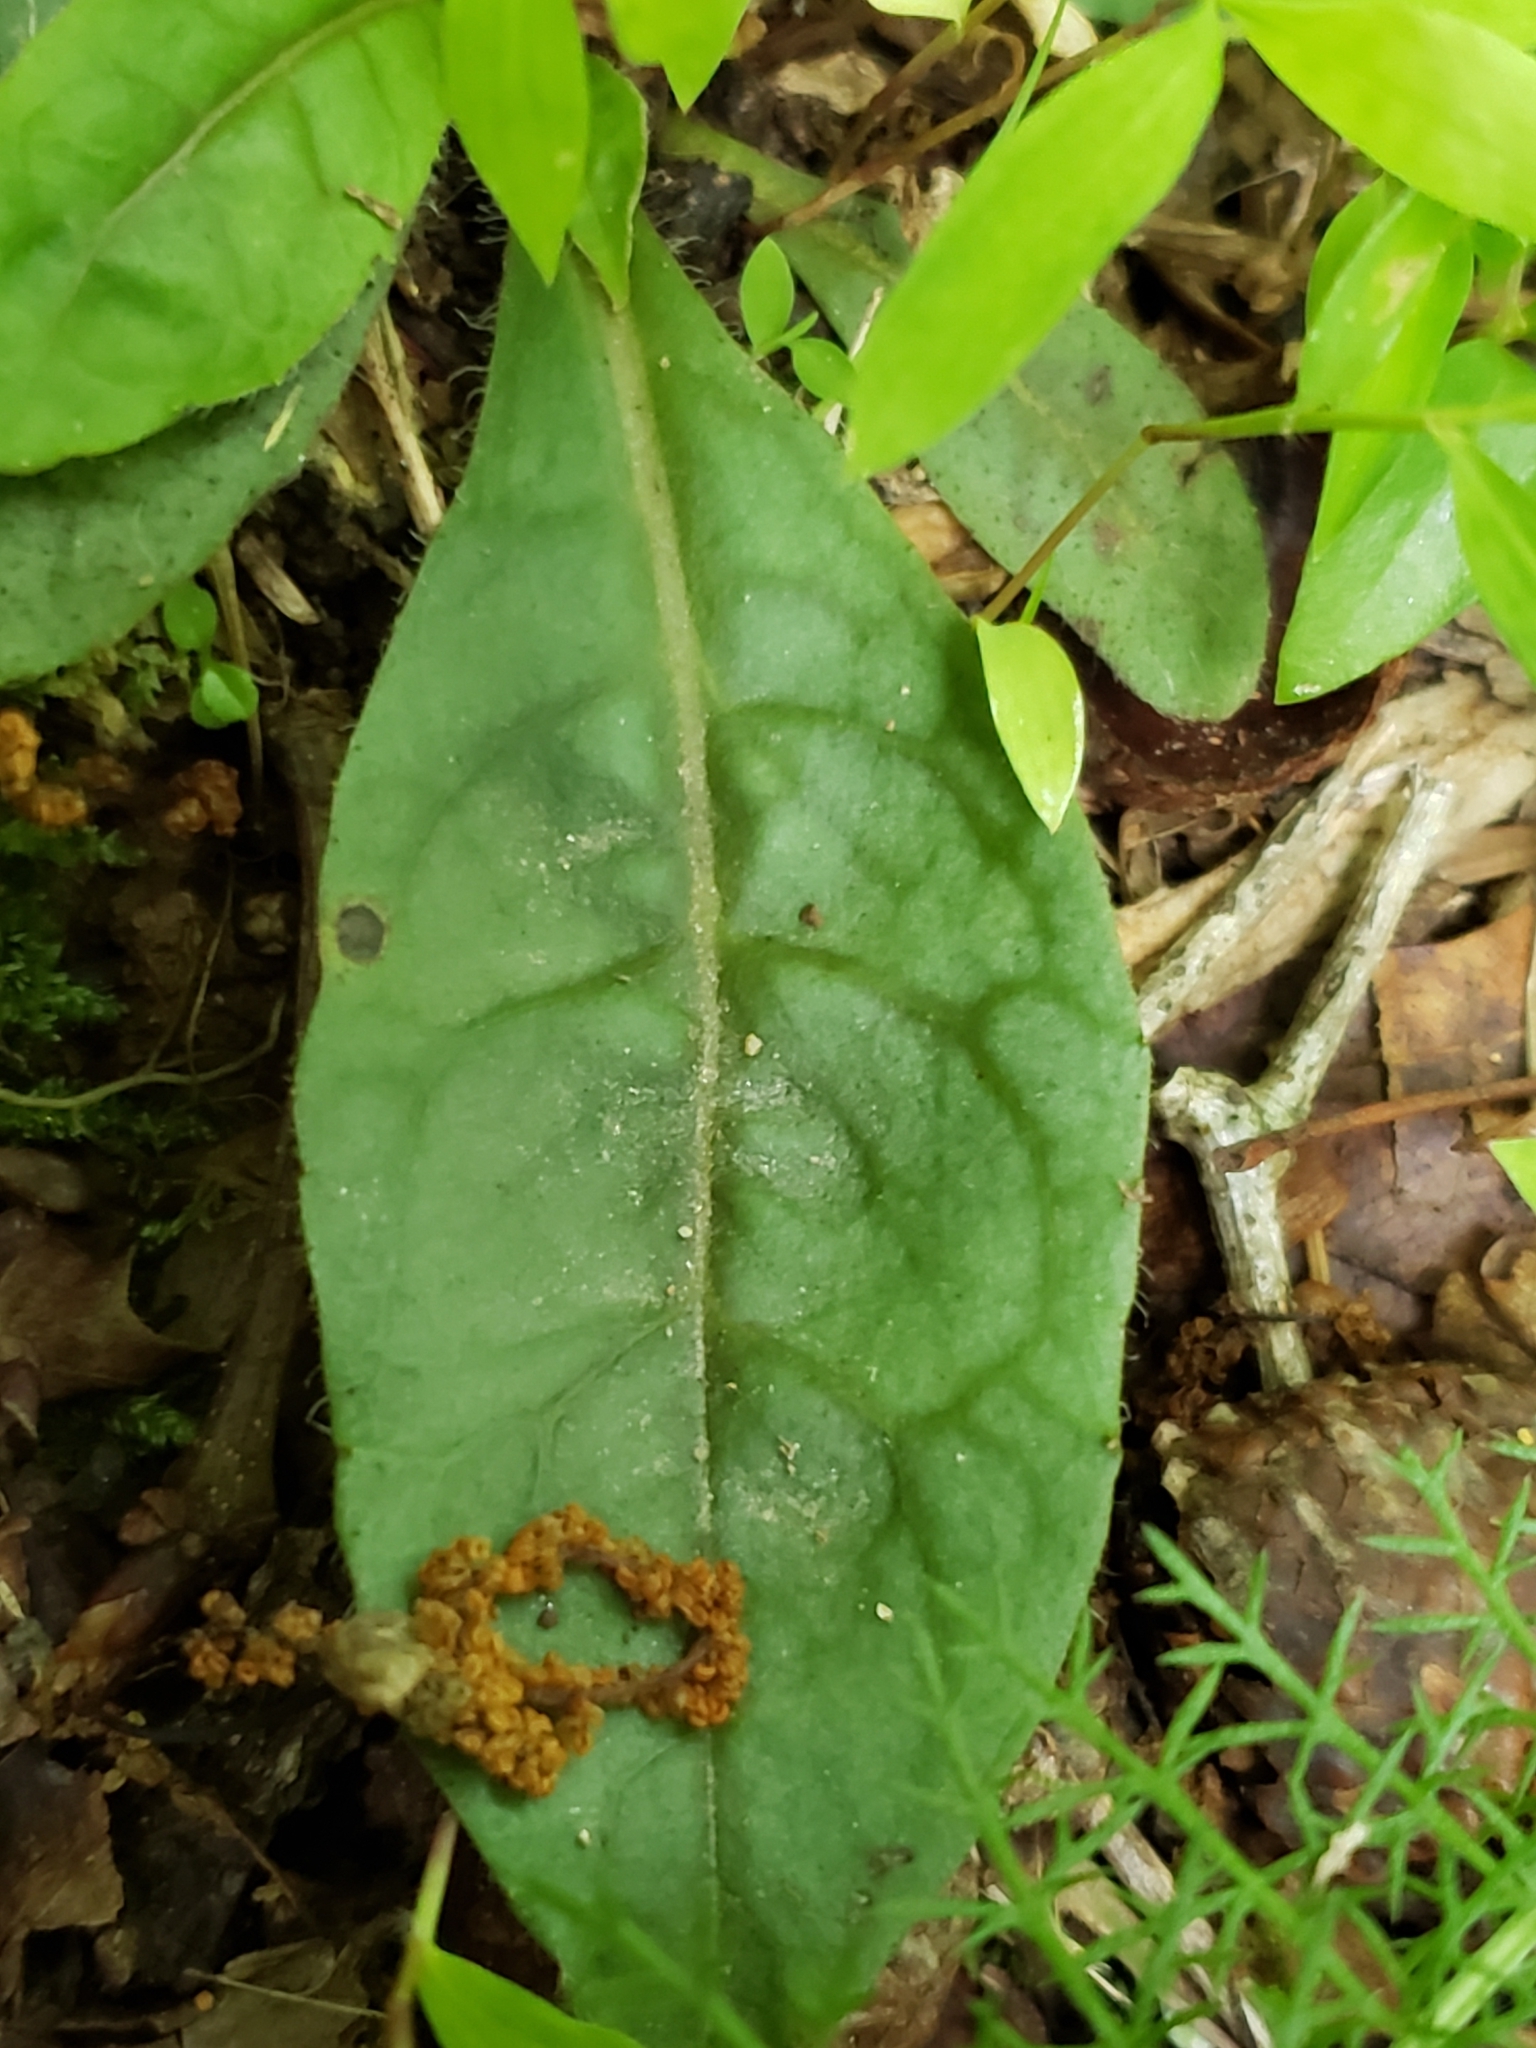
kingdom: Plantae
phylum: Tracheophyta
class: Magnoliopsida
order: Asterales
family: Asteraceae
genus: Hieracium
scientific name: Hieracium venosum
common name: Rattlesnake hawkweed
